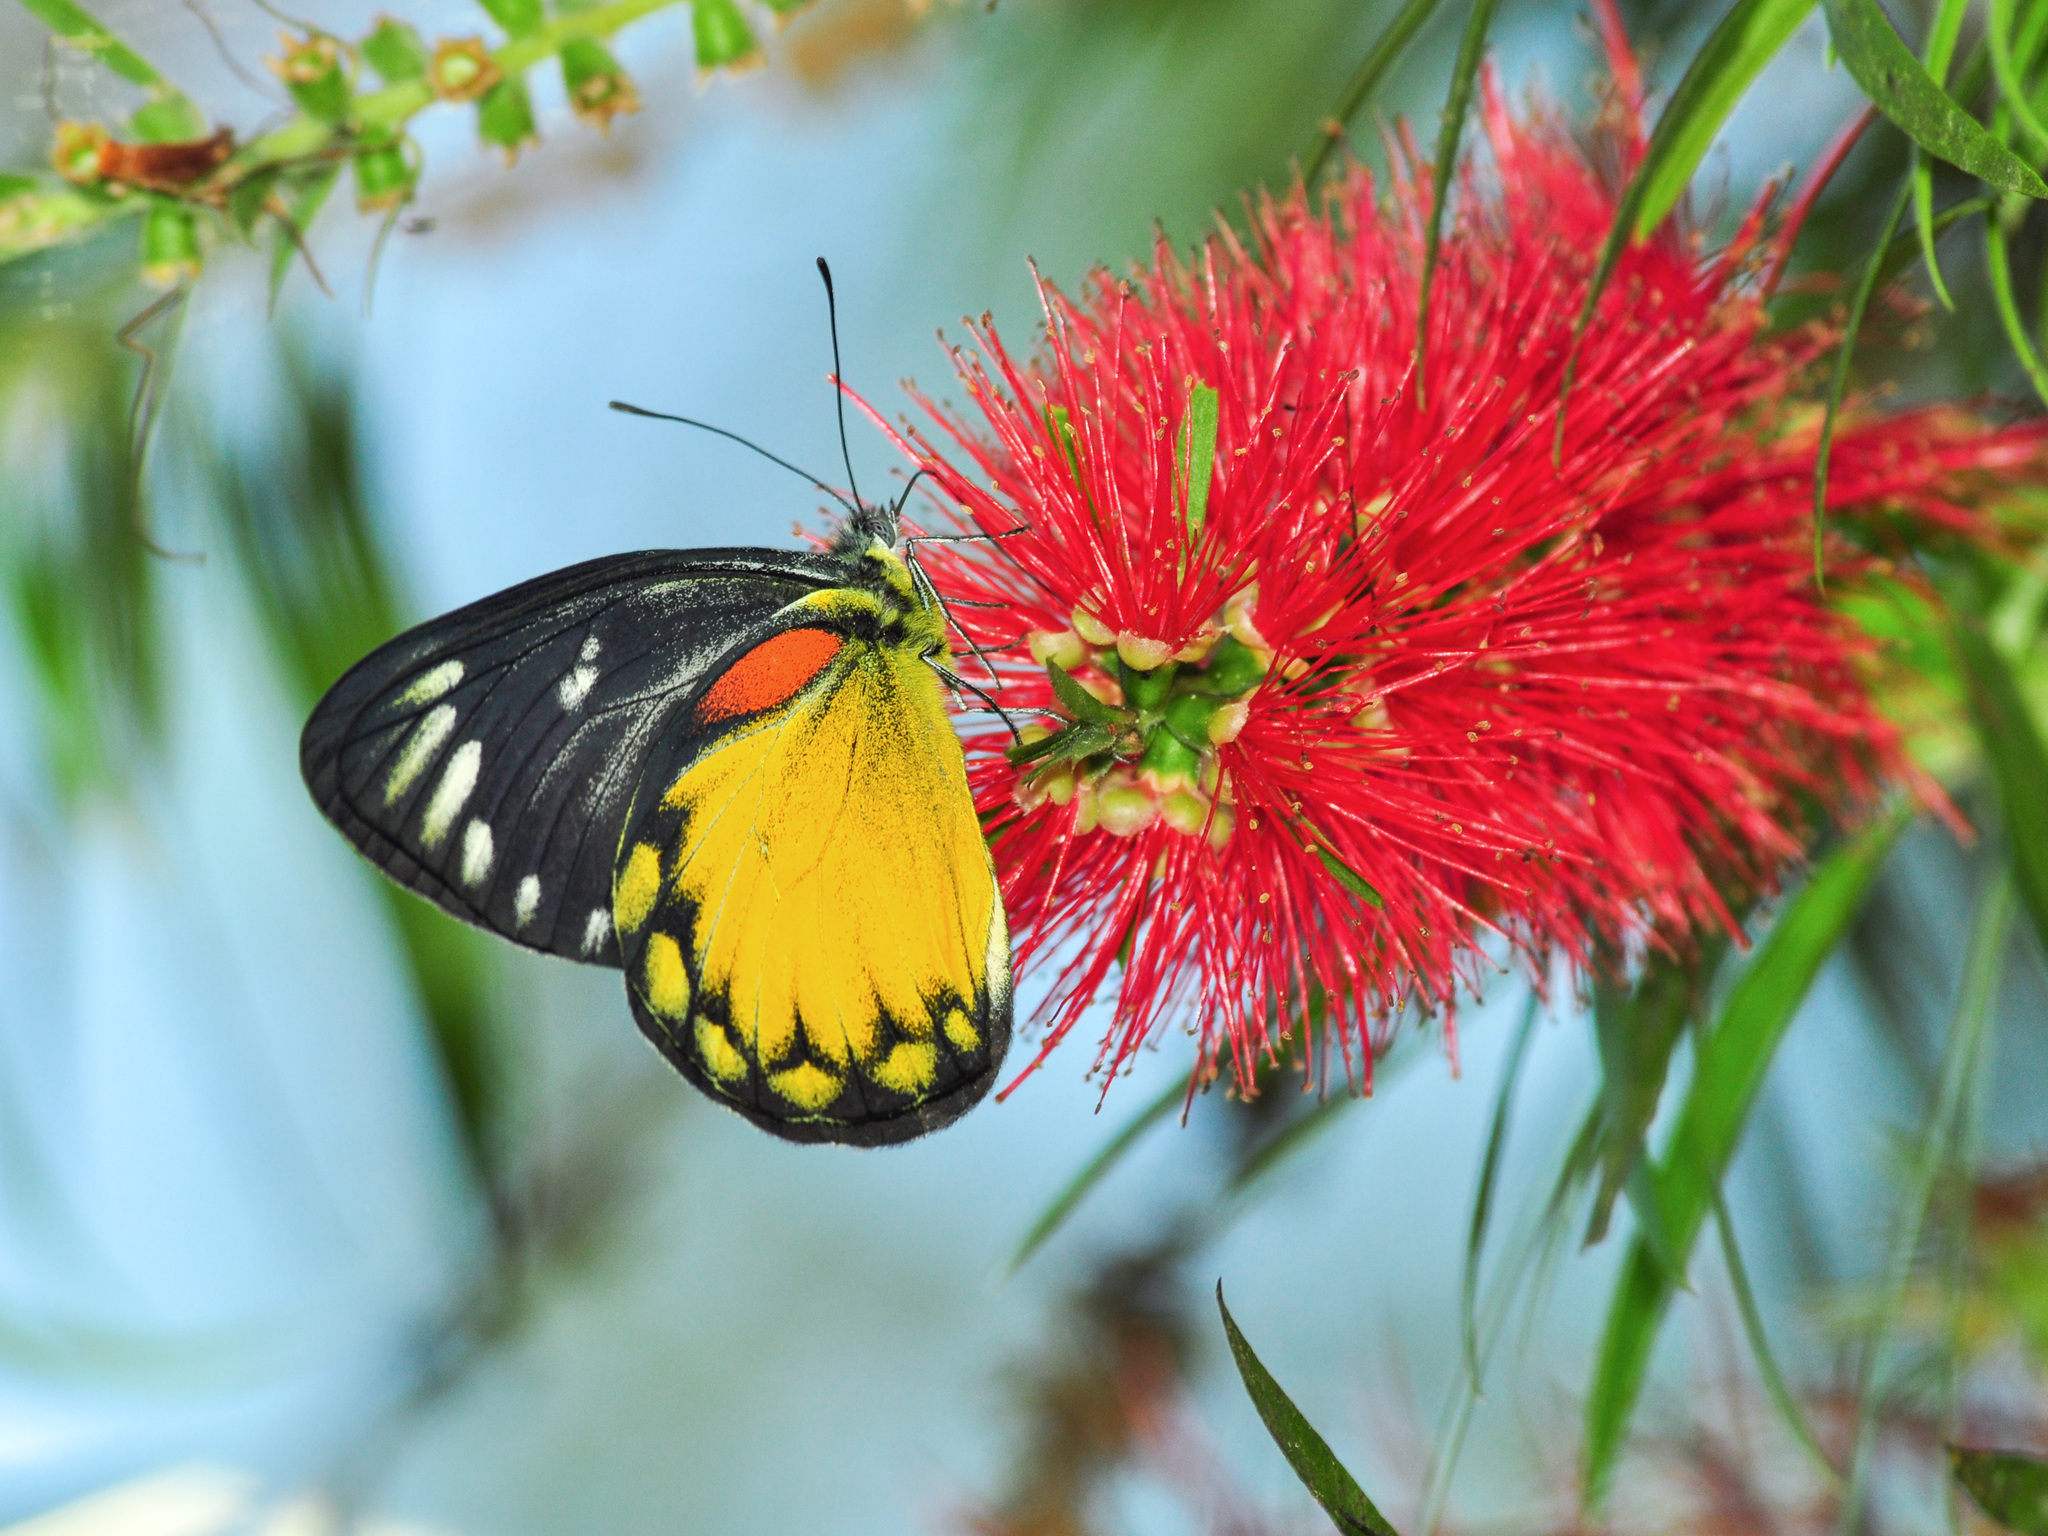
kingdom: Animalia
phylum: Arthropoda
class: Insecta
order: Lepidoptera
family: Pieridae
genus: Delias
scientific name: Delias descombesi
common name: Red-spot jezebel
